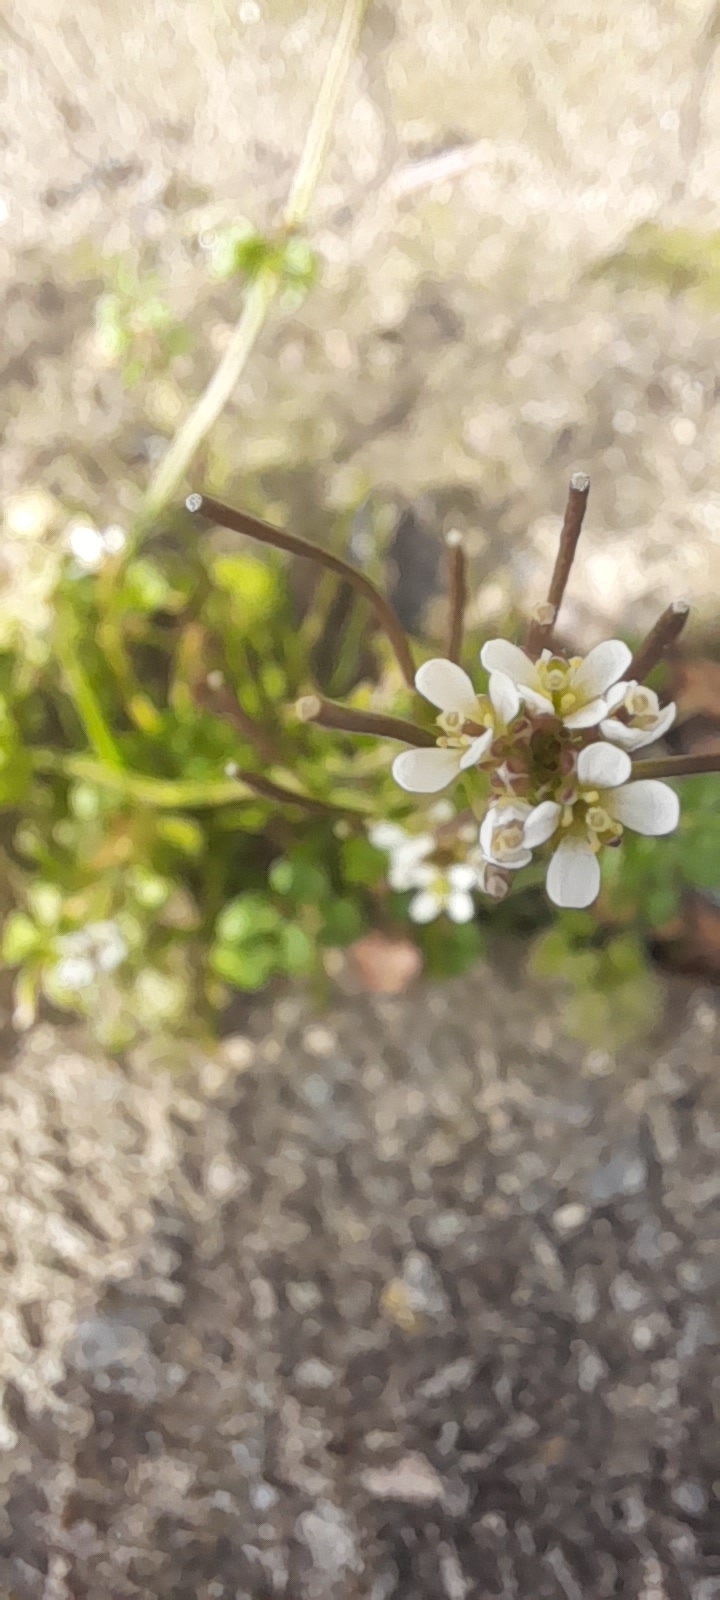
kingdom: Plantae
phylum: Tracheophyta
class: Magnoliopsida
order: Brassicales
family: Brassicaceae
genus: Cardamine
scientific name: Cardamine hirsuta
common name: Hairy bittercress
